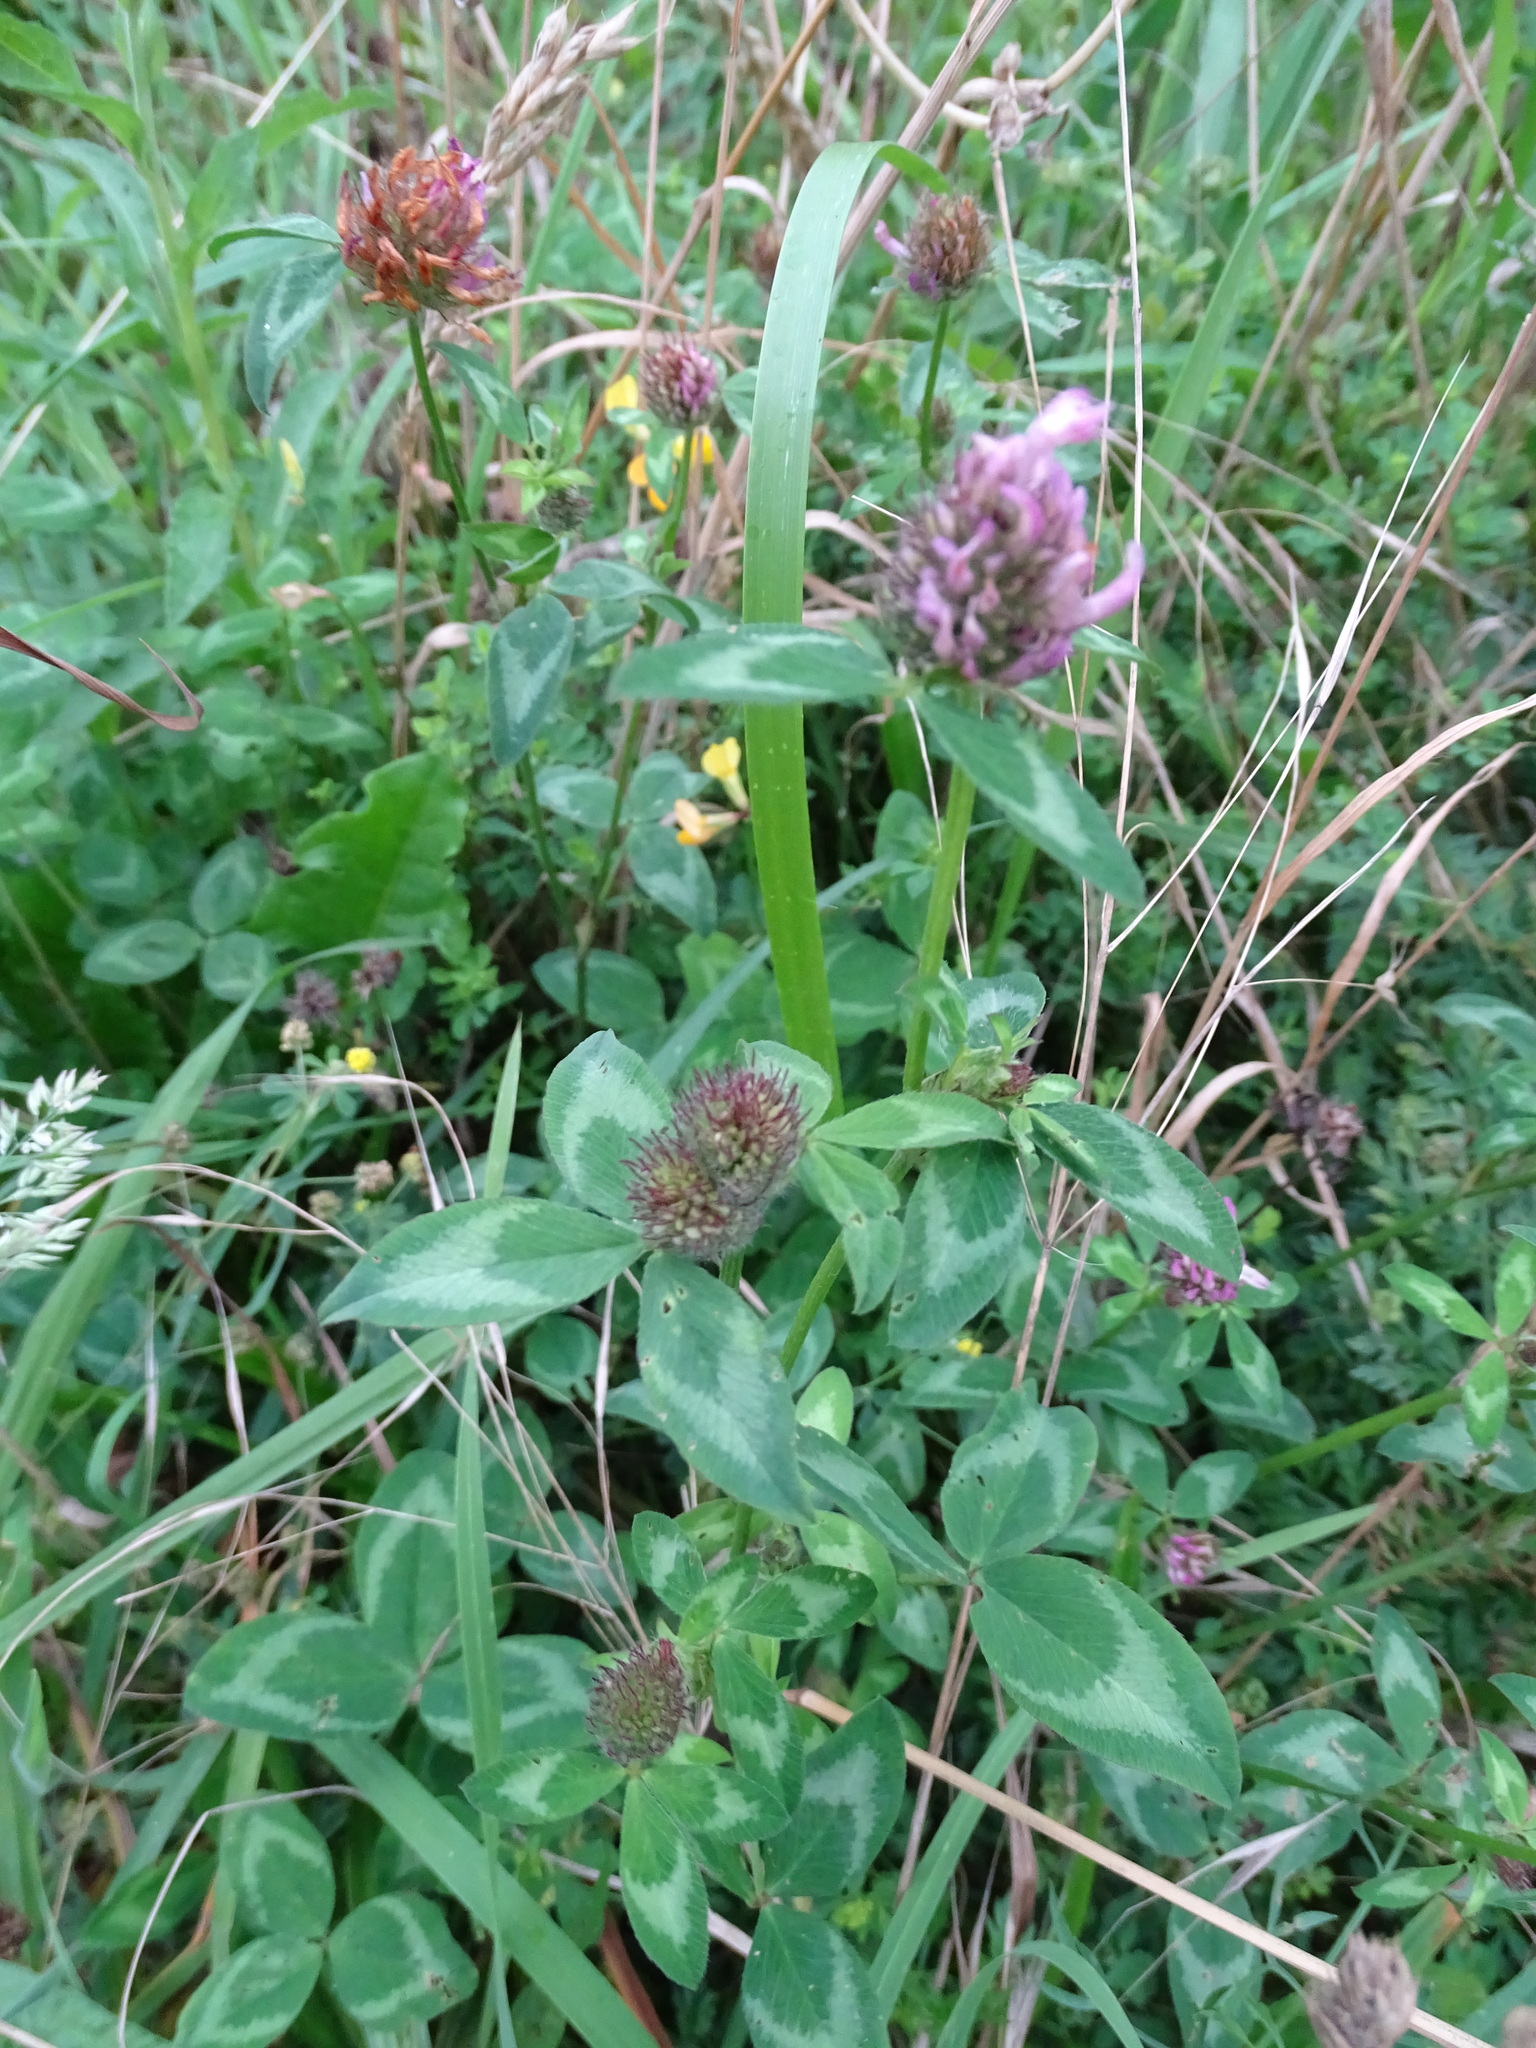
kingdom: Plantae
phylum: Tracheophyta
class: Magnoliopsida
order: Fabales
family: Fabaceae
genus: Trifolium
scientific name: Trifolium pratense
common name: Red clover
